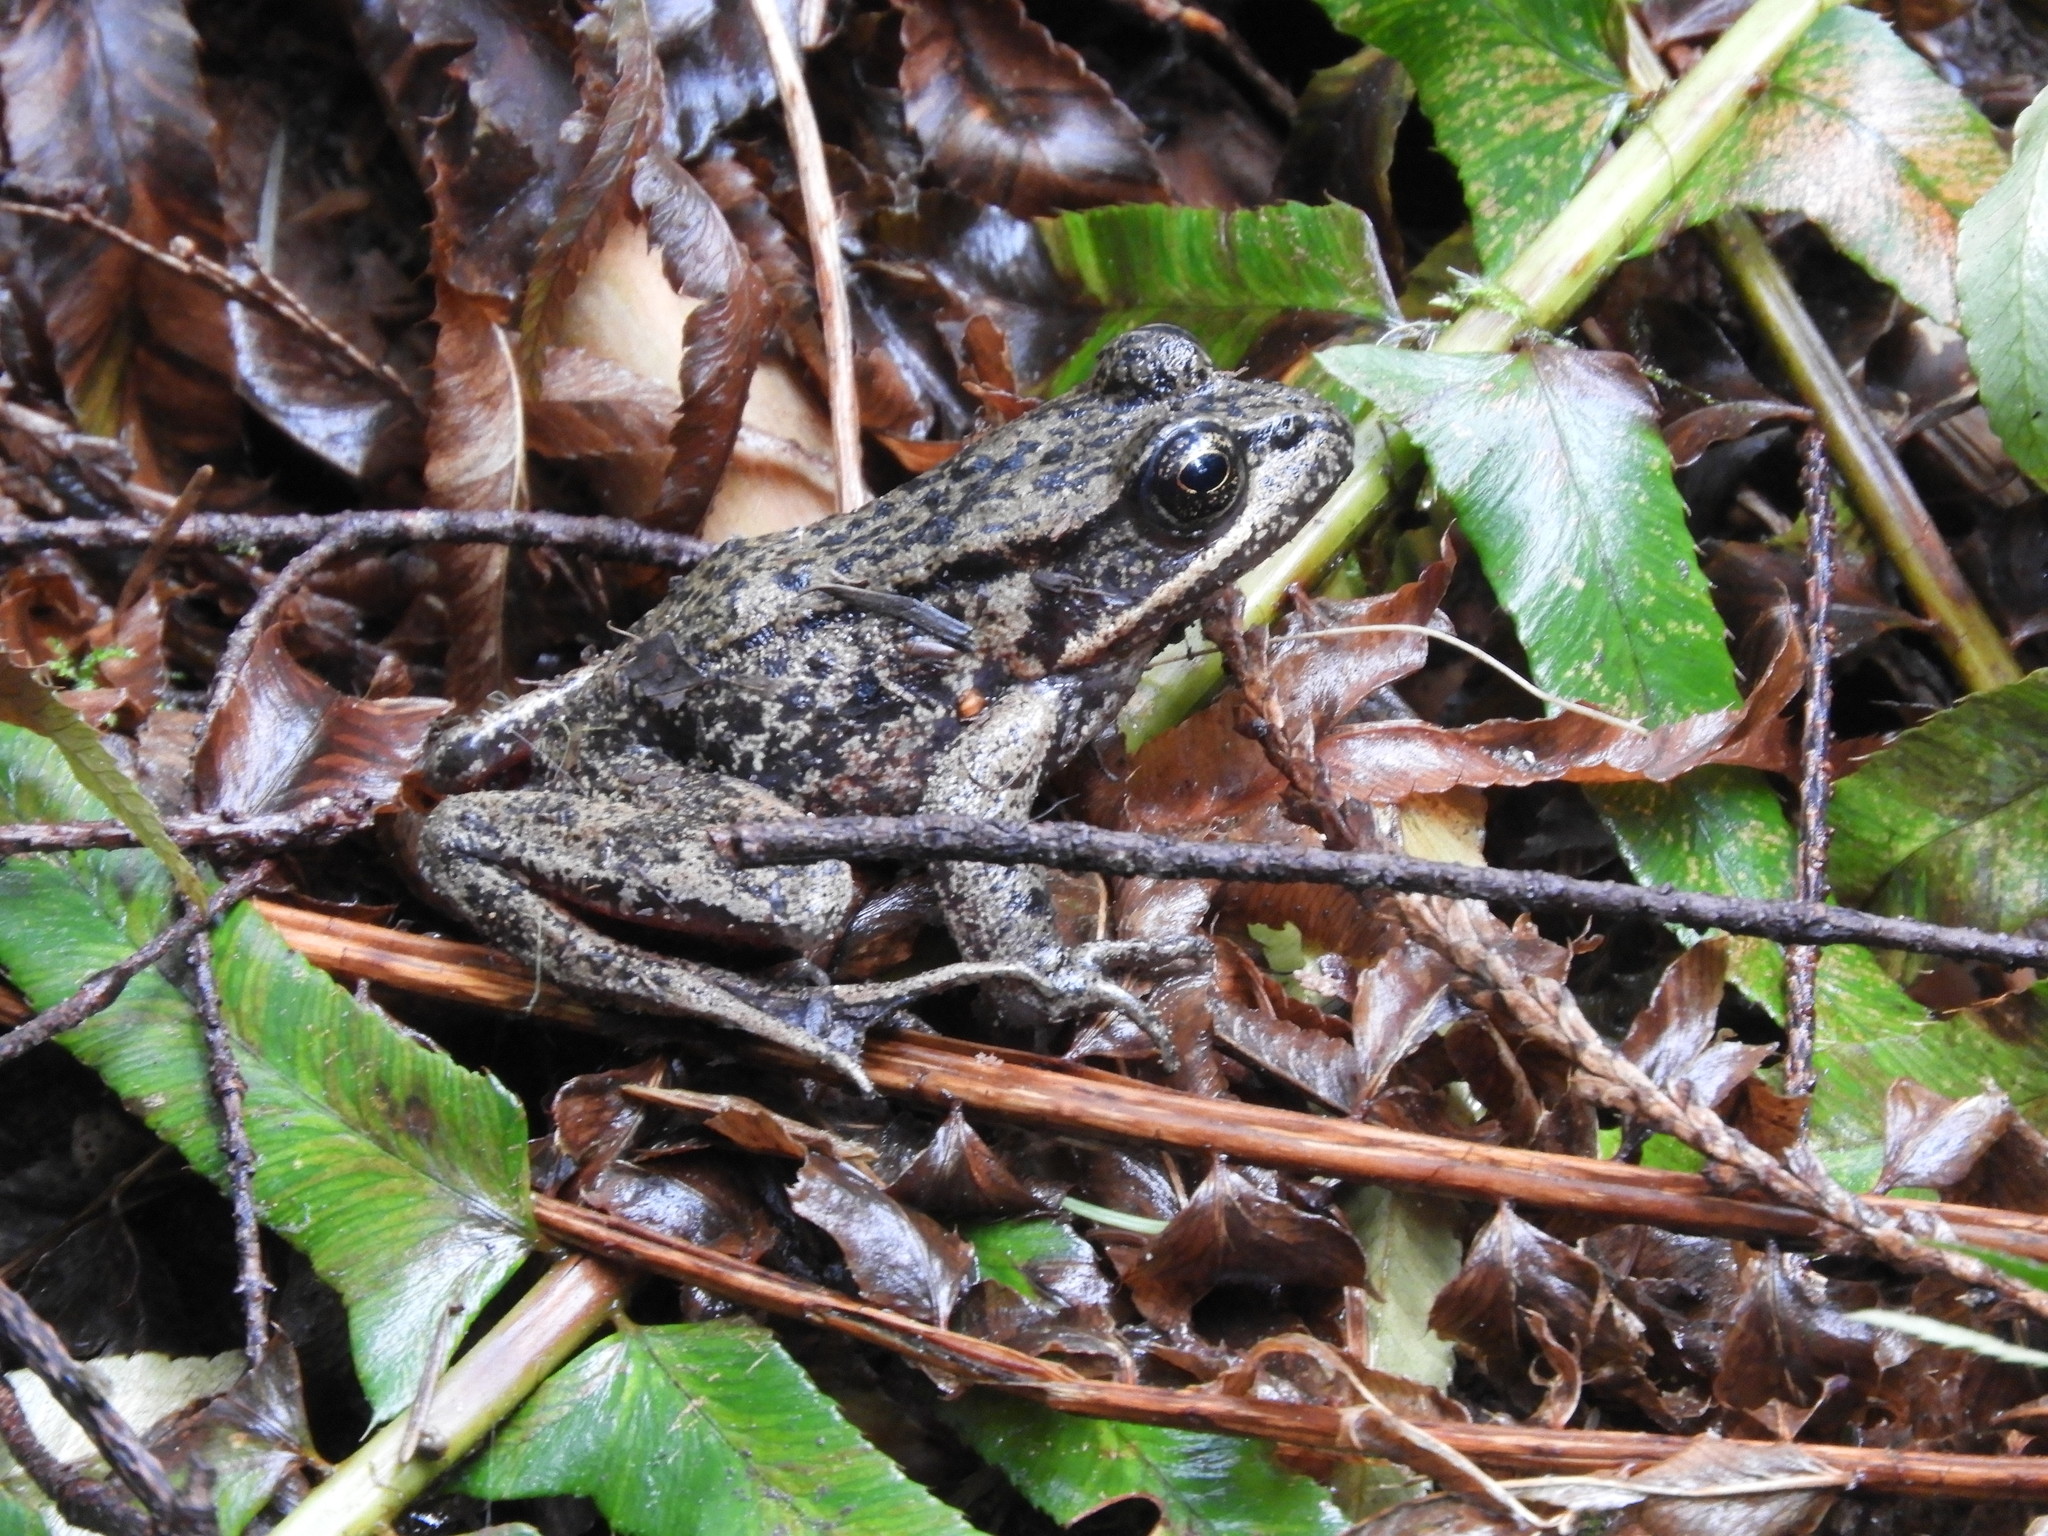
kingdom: Animalia
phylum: Chordata
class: Amphibia
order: Anura
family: Ranidae
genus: Rana
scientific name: Rana aurora
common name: Red-legged frog
